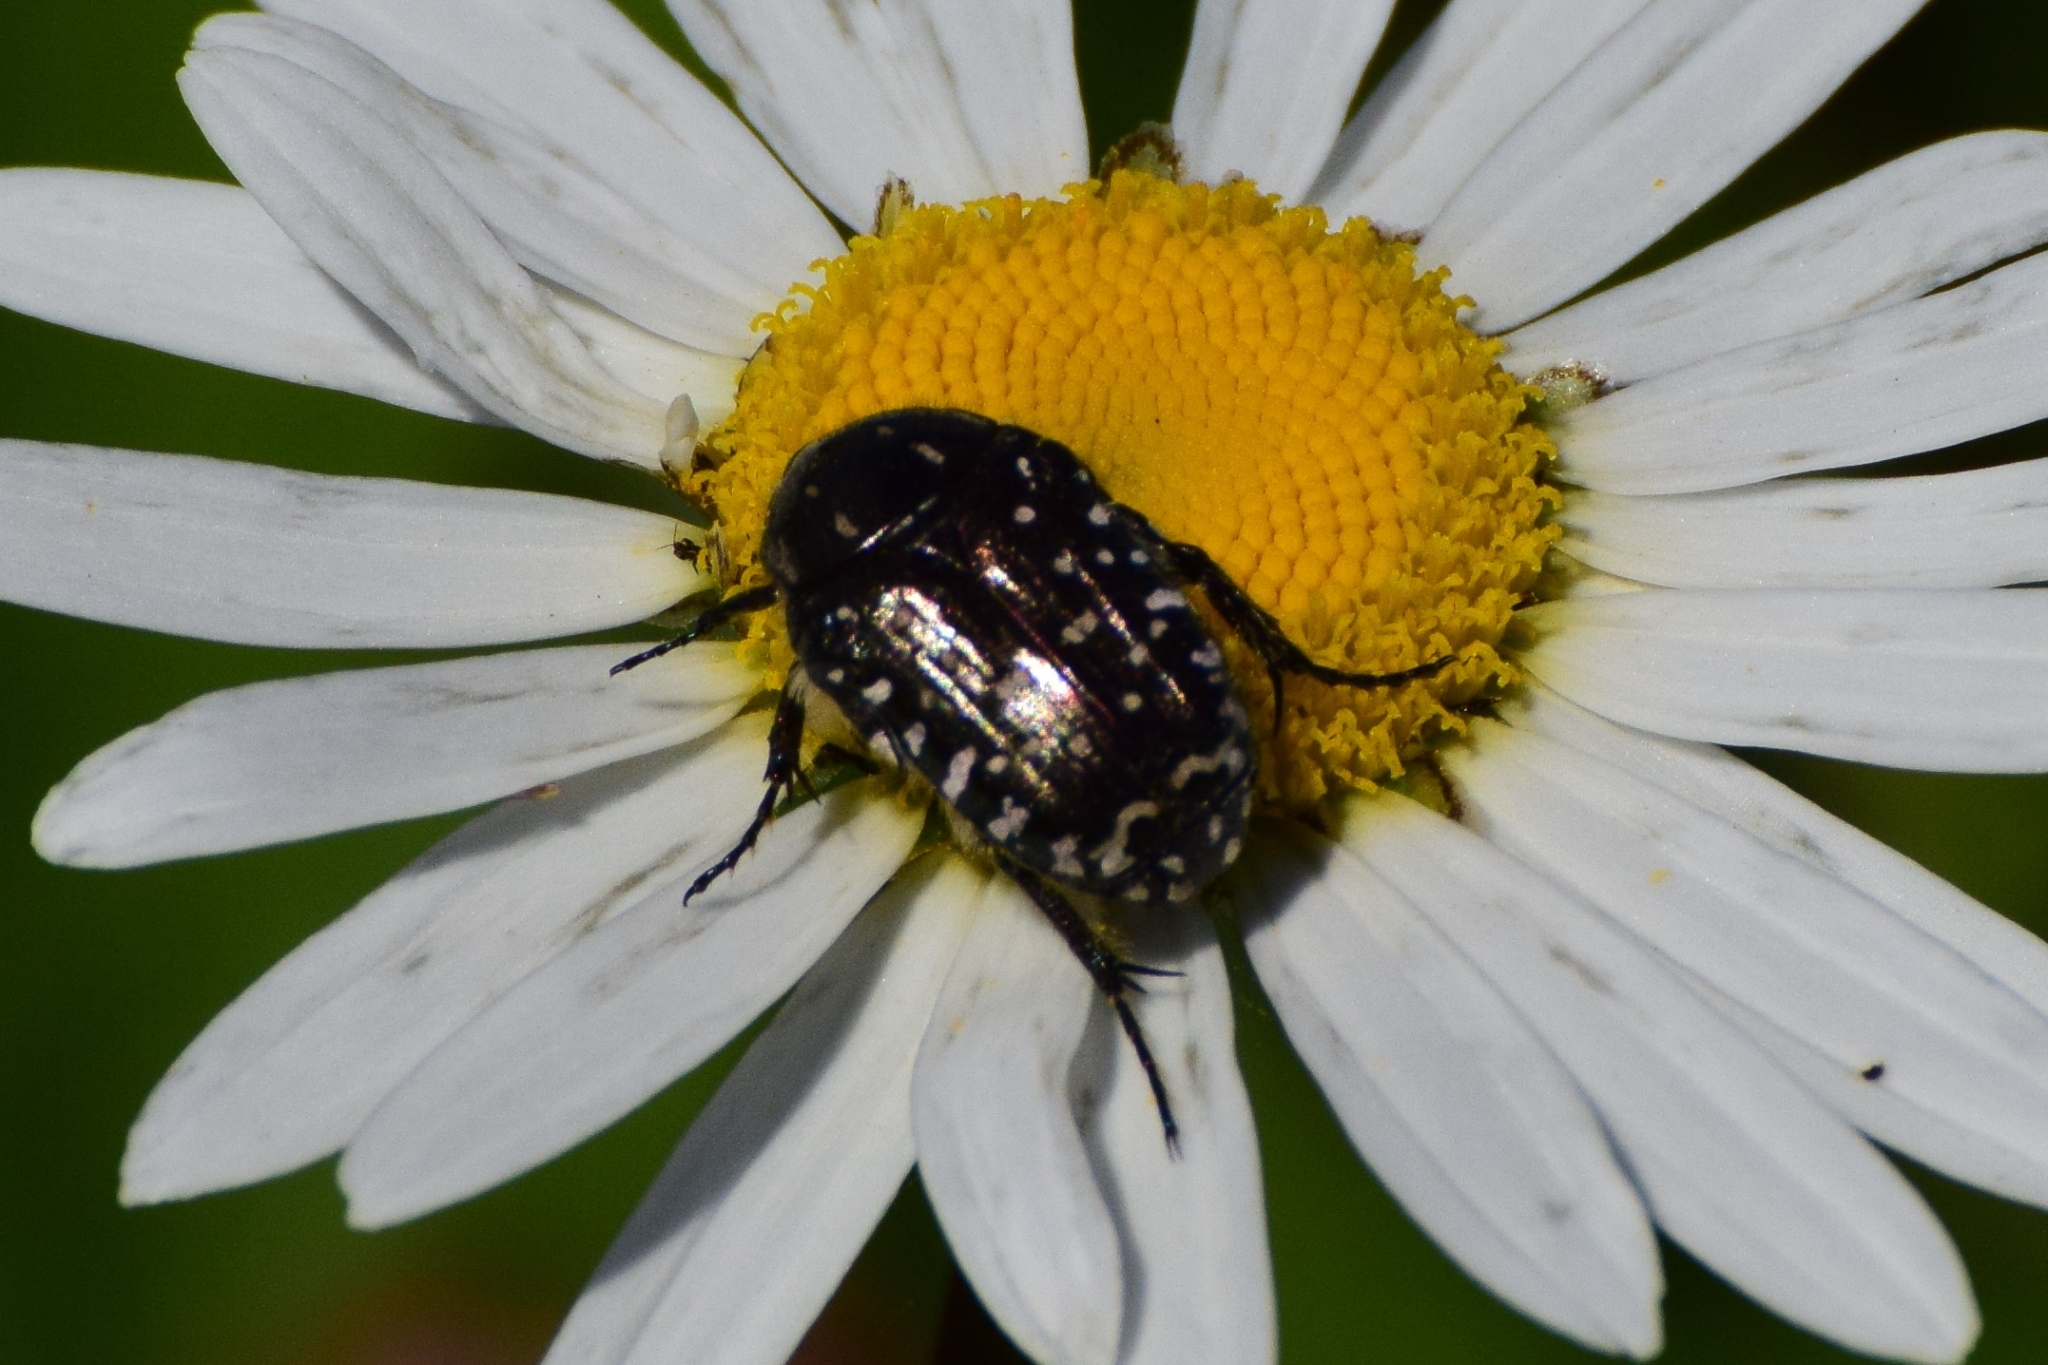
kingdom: Animalia
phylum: Arthropoda
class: Insecta
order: Coleoptera
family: Scarabaeidae
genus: Oxythyrea
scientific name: Oxythyrea funesta
